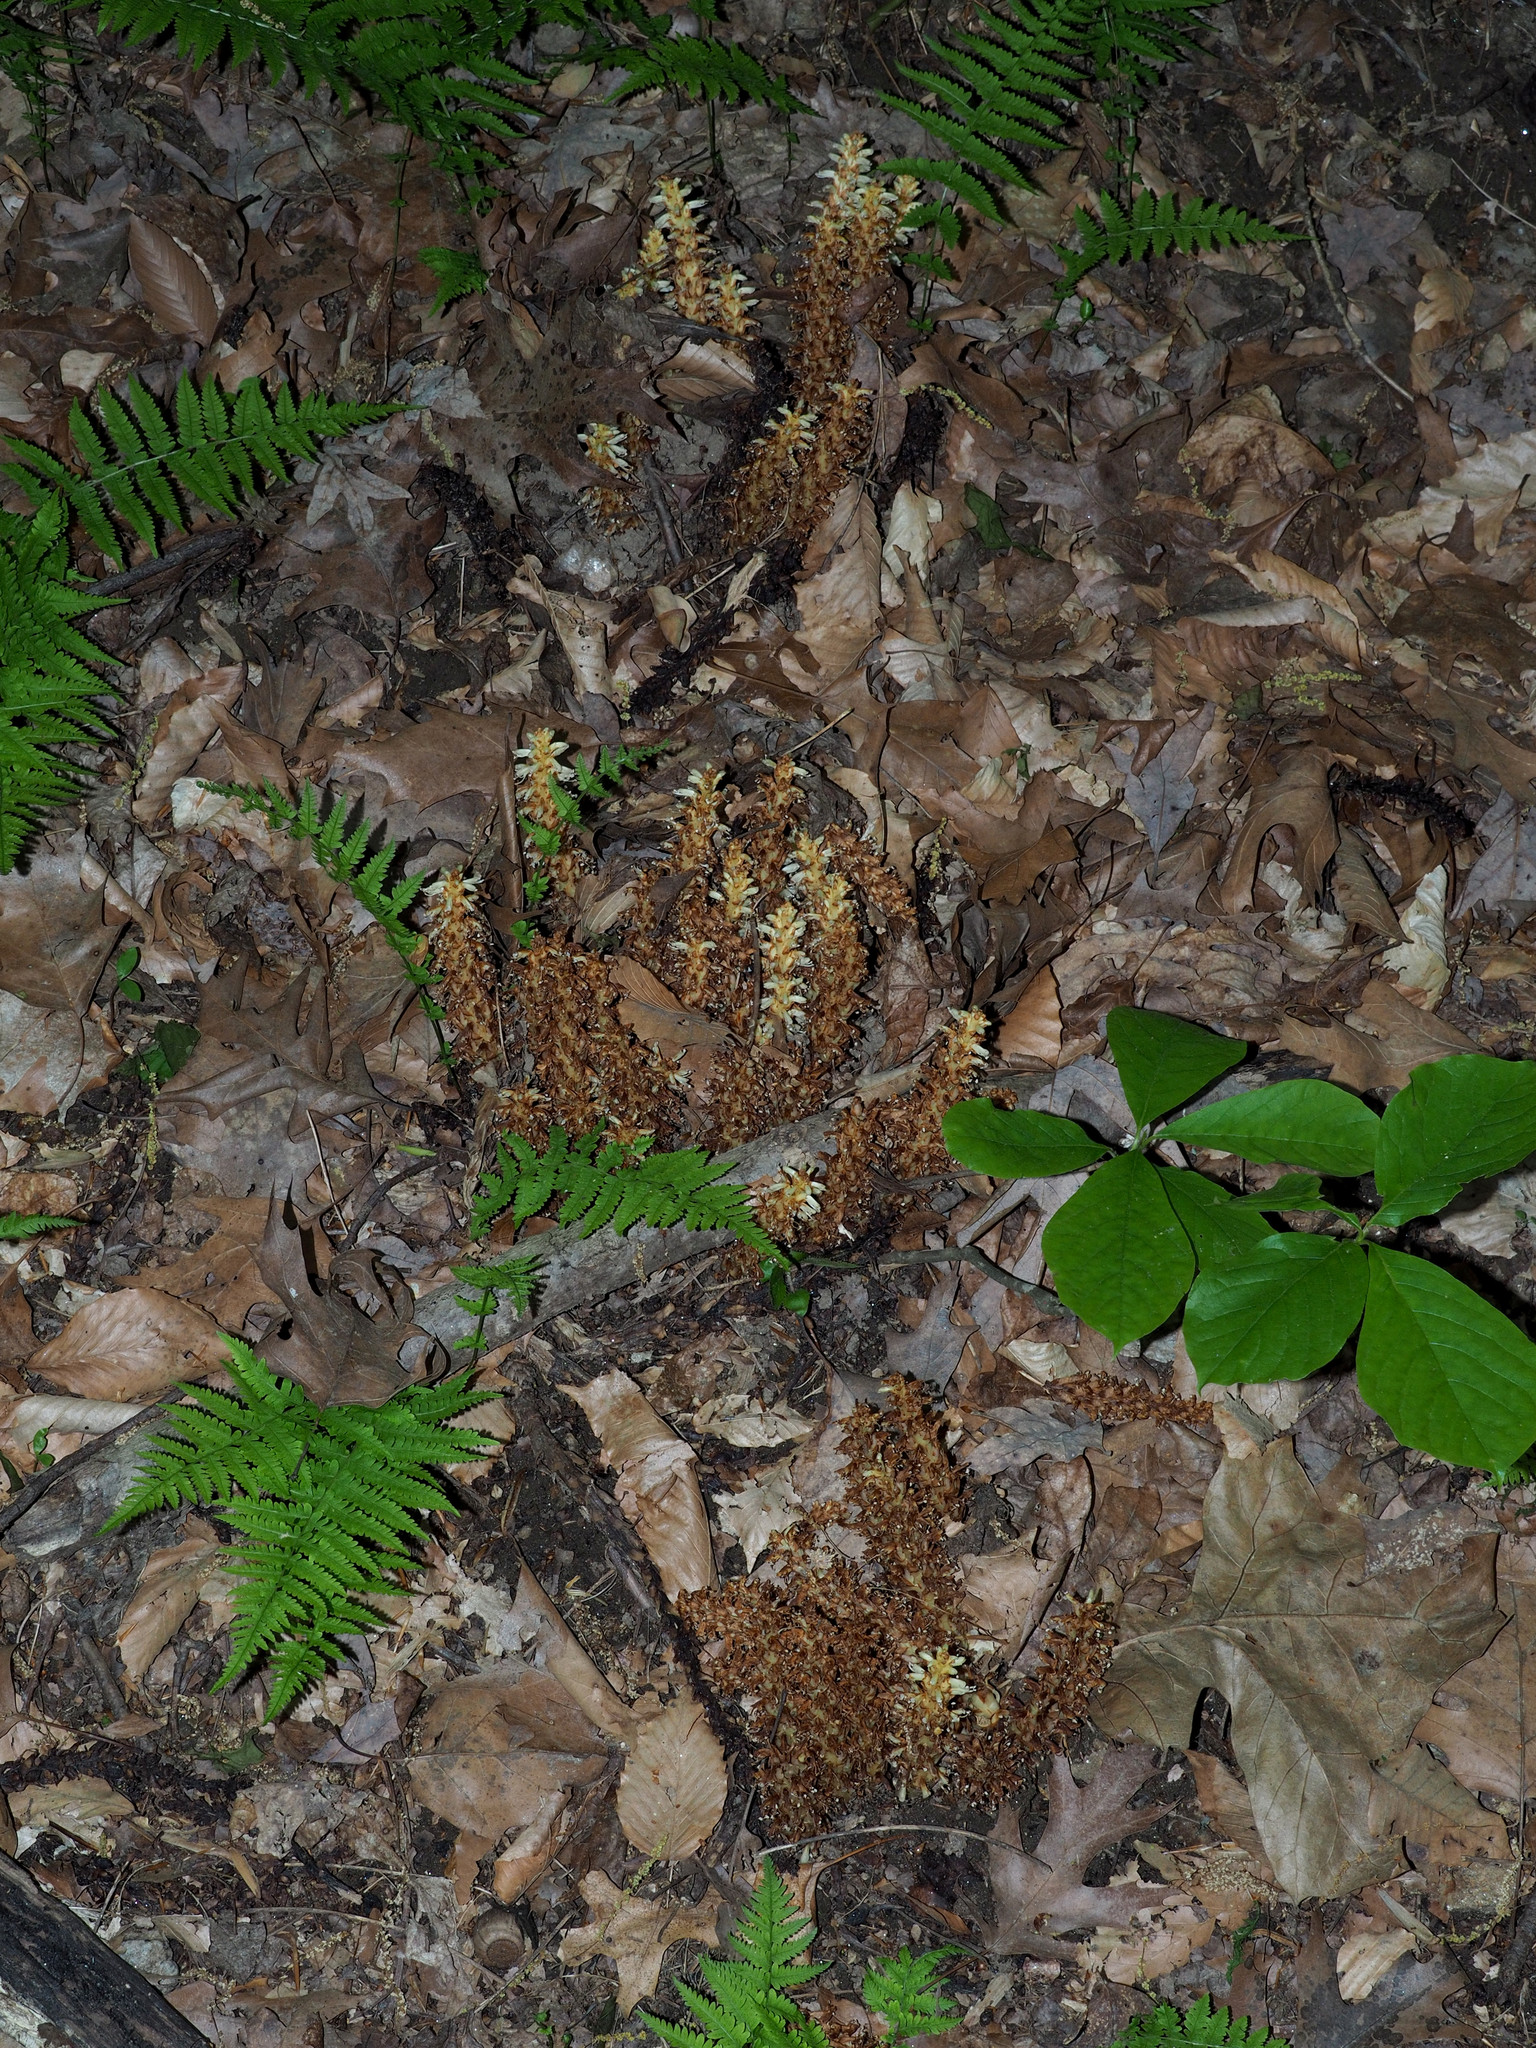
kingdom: Plantae
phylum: Tracheophyta
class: Magnoliopsida
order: Lamiales
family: Orobanchaceae
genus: Conopholis
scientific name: Conopholis americana
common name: American cancer-root
